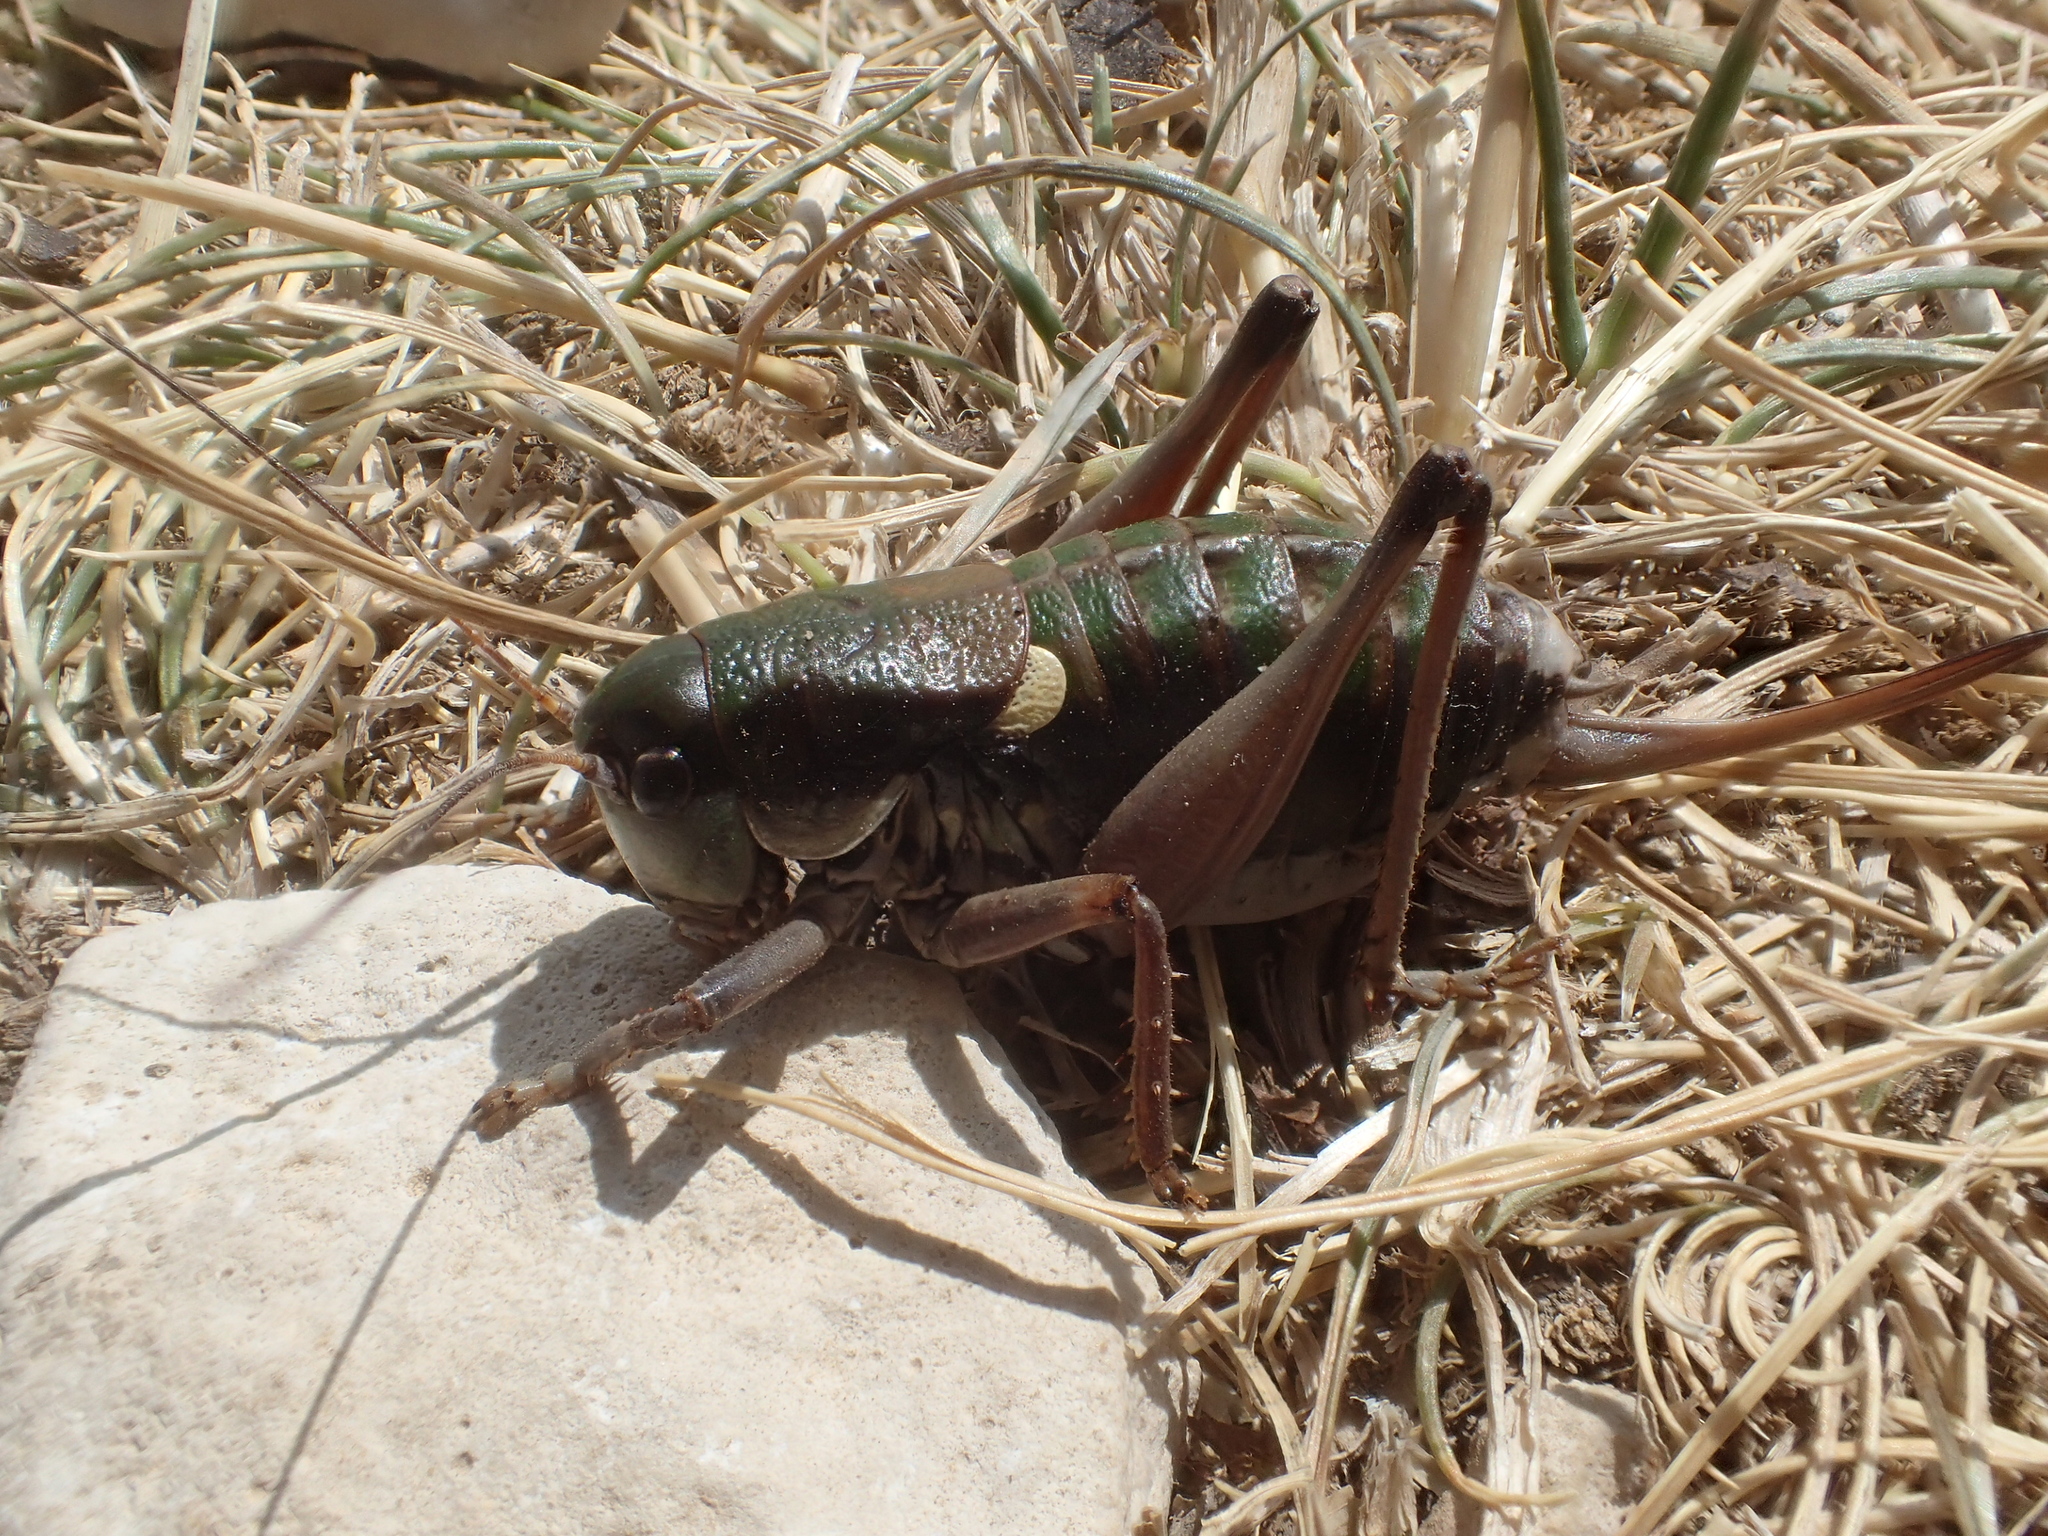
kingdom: Animalia
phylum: Arthropoda
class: Insecta
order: Orthoptera
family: Tettigoniidae
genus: Anonconotus
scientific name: Anonconotus ghilianii
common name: Ghiliani's alpine bush-cricket
